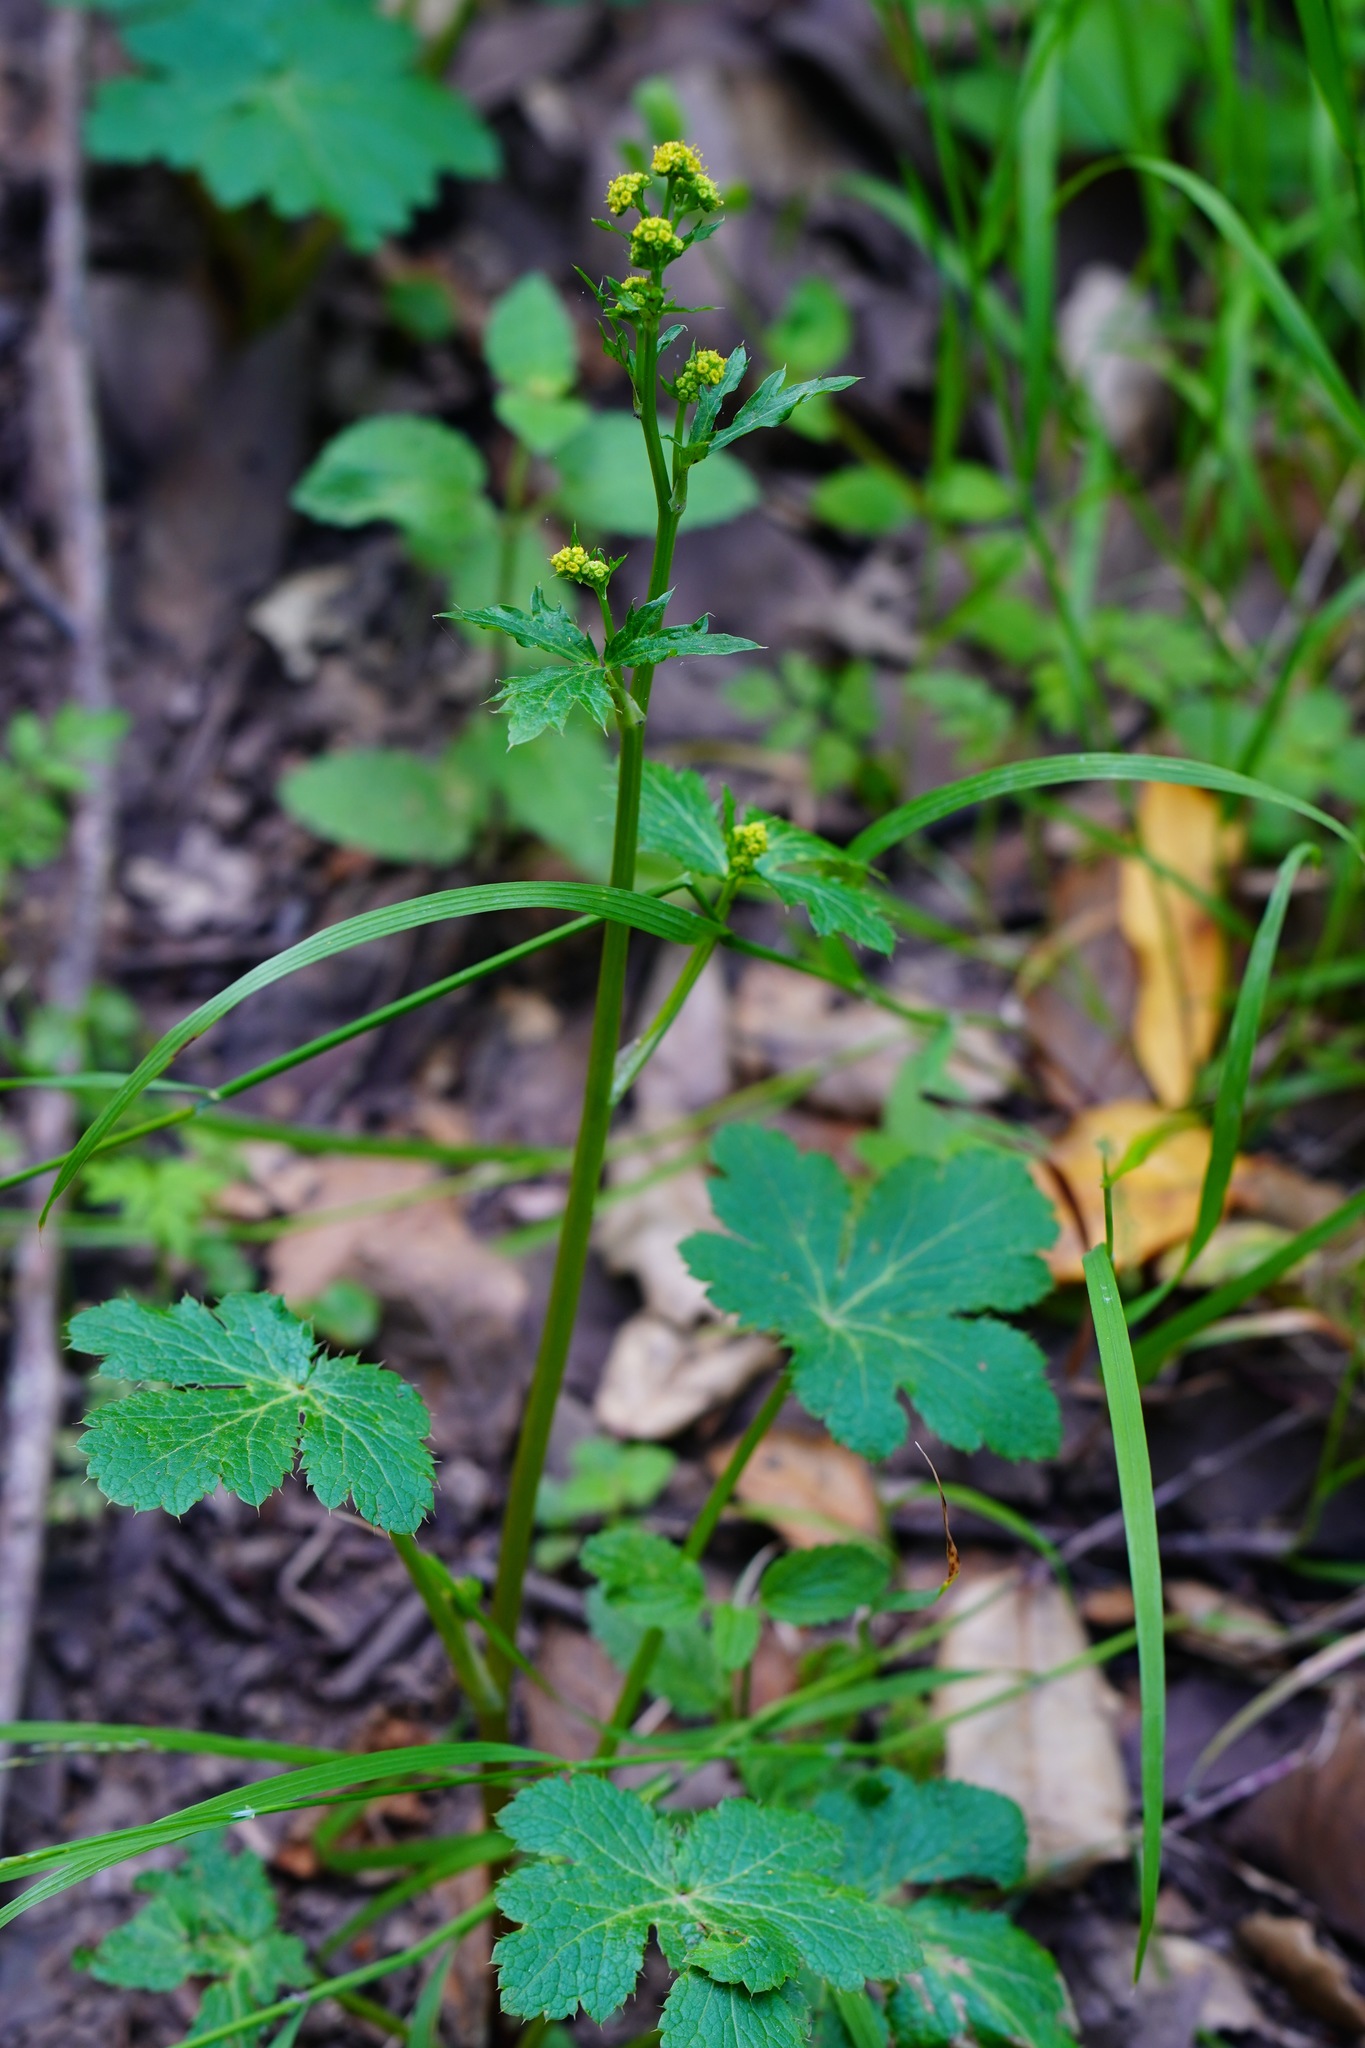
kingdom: Plantae
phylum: Tracheophyta
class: Magnoliopsida
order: Apiales
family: Apiaceae
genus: Sanicula
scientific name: Sanicula crassicaulis
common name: Western snakeroot
